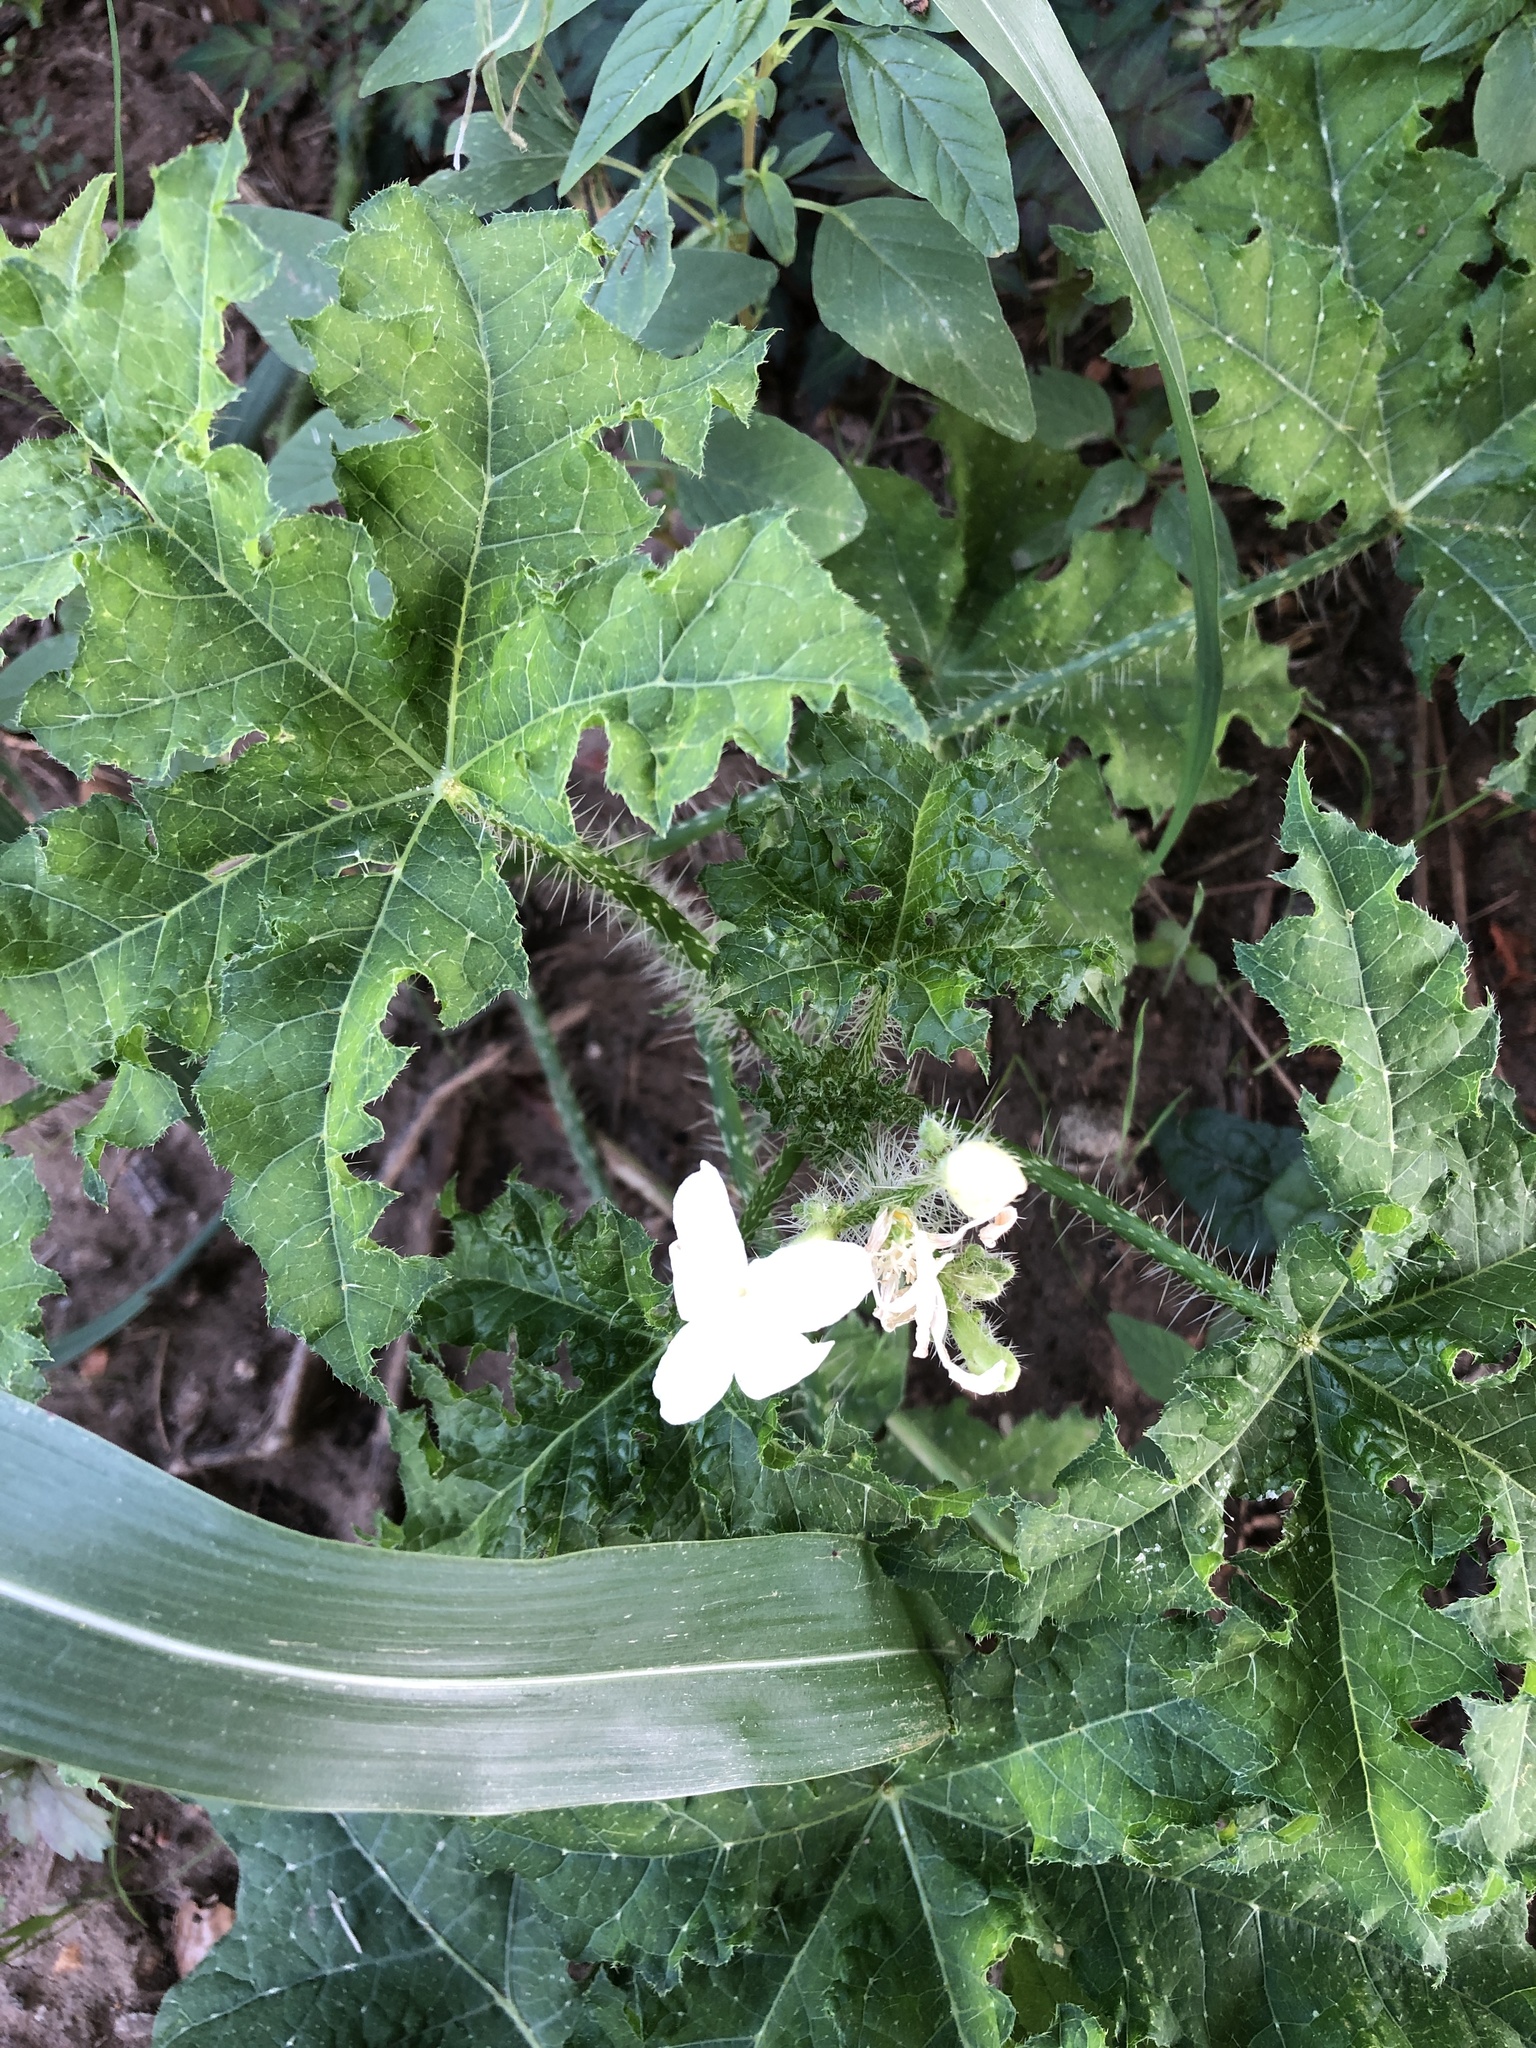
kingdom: Plantae
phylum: Tracheophyta
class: Magnoliopsida
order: Malpighiales
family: Euphorbiaceae
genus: Cnidoscolus
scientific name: Cnidoscolus texanus
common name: Texas bull-nettle
